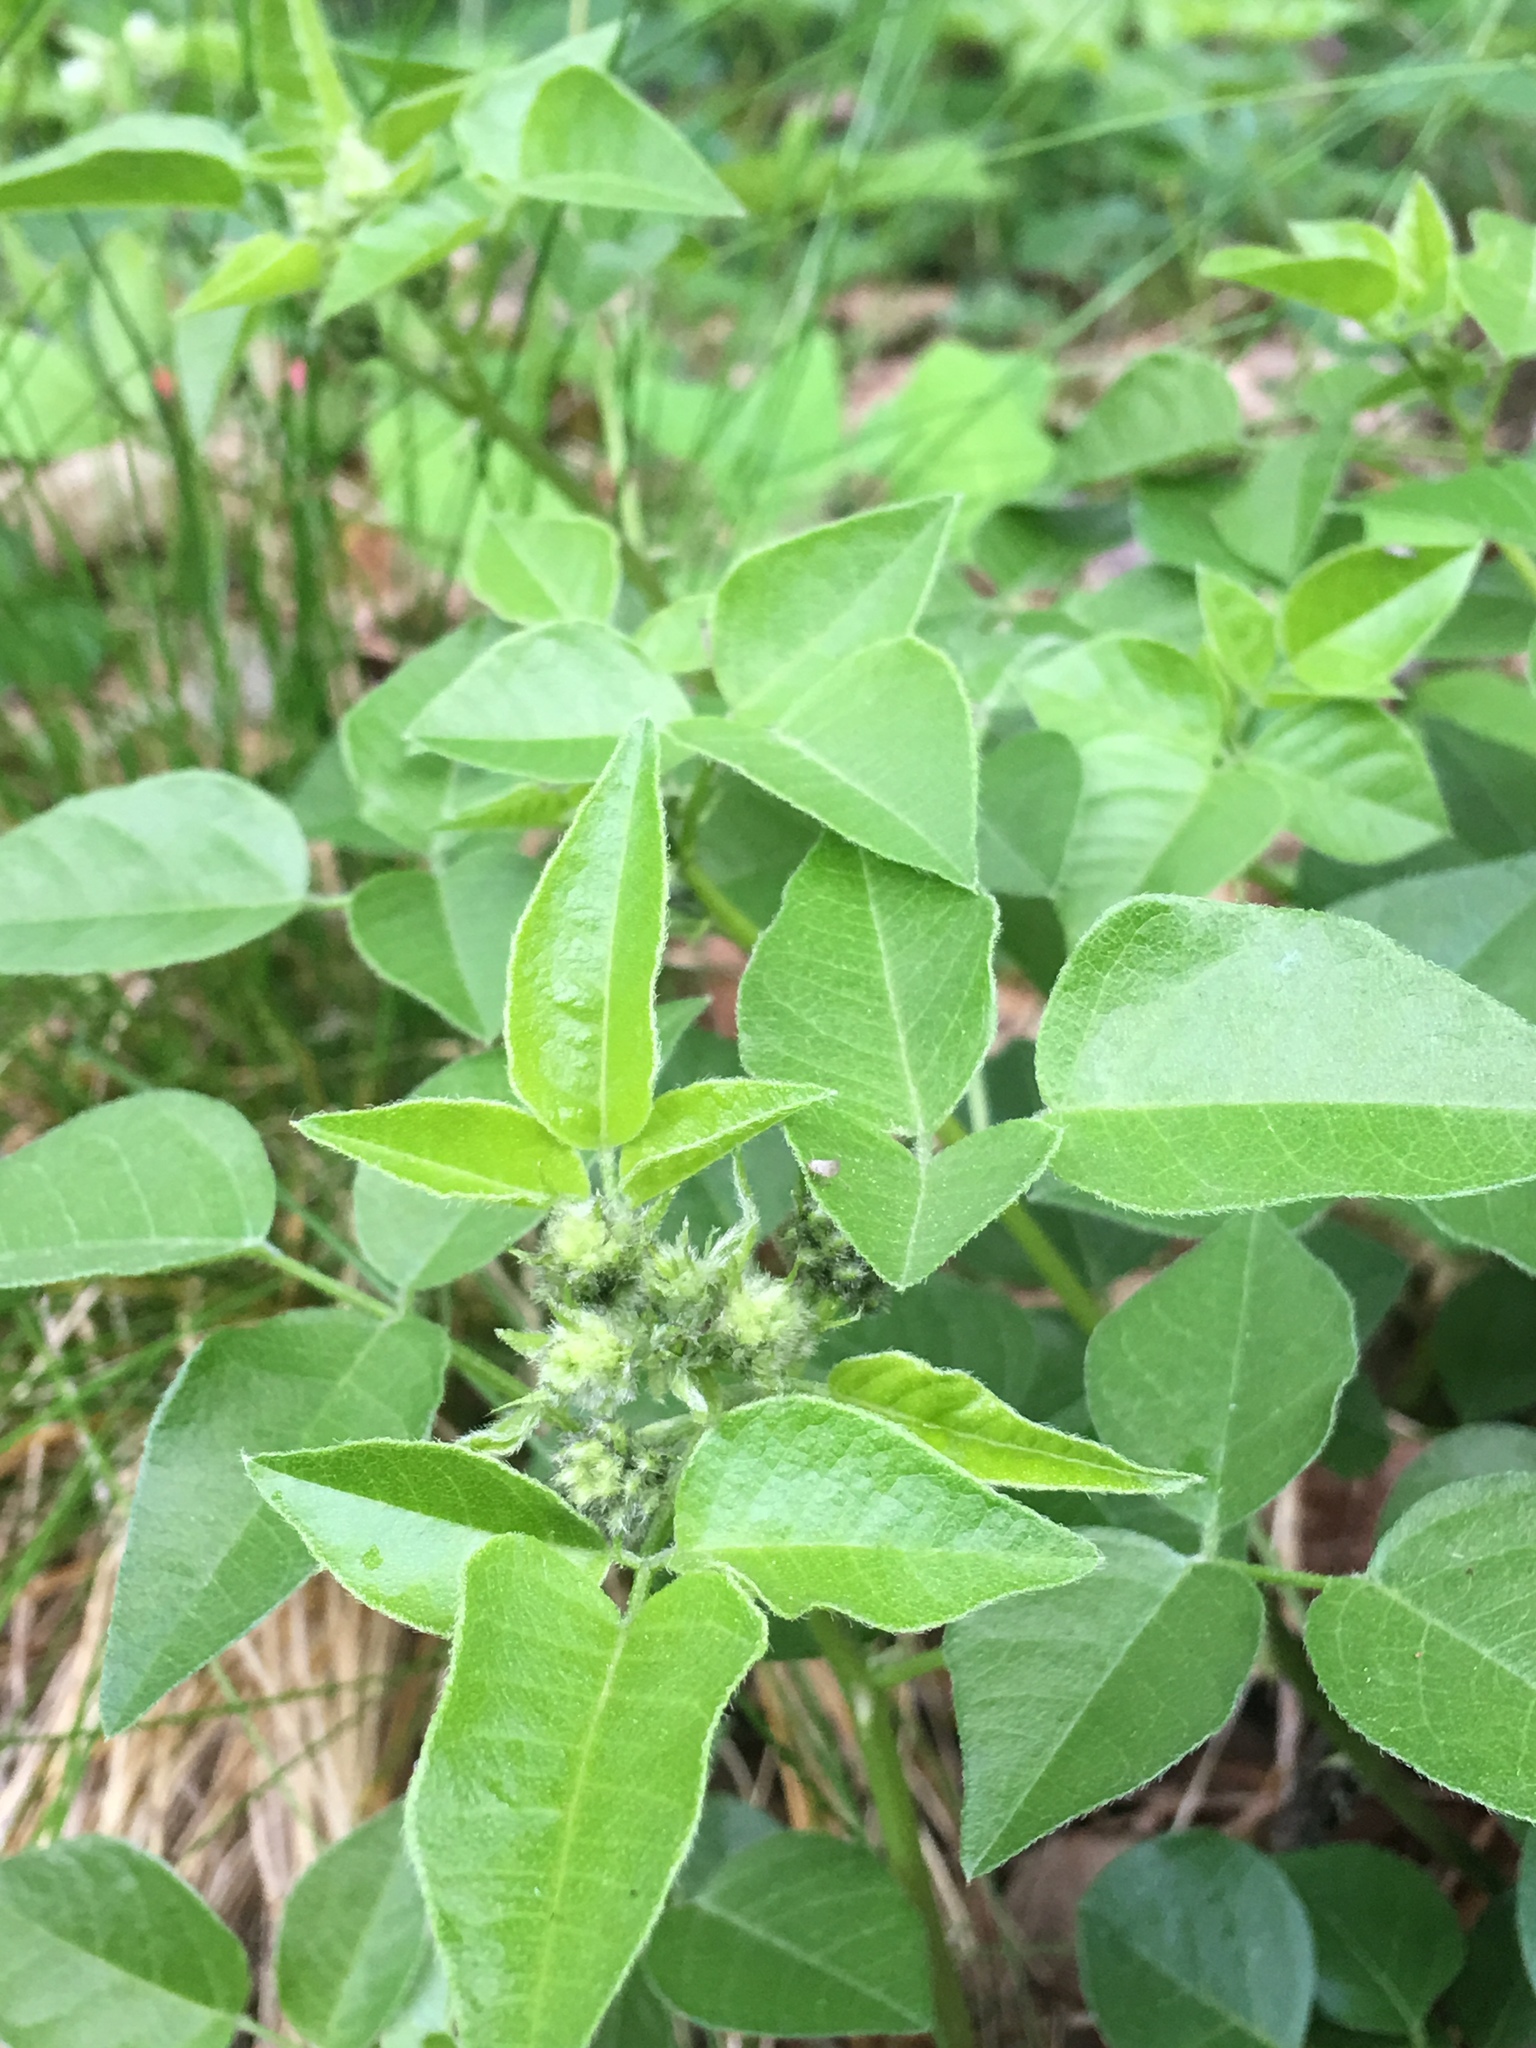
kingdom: Plantae
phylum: Tracheophyta
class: Magnoliopsida
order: Fabales
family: Fabaceae
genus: Rupertia
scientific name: Rupertia physodes
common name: California-tea
